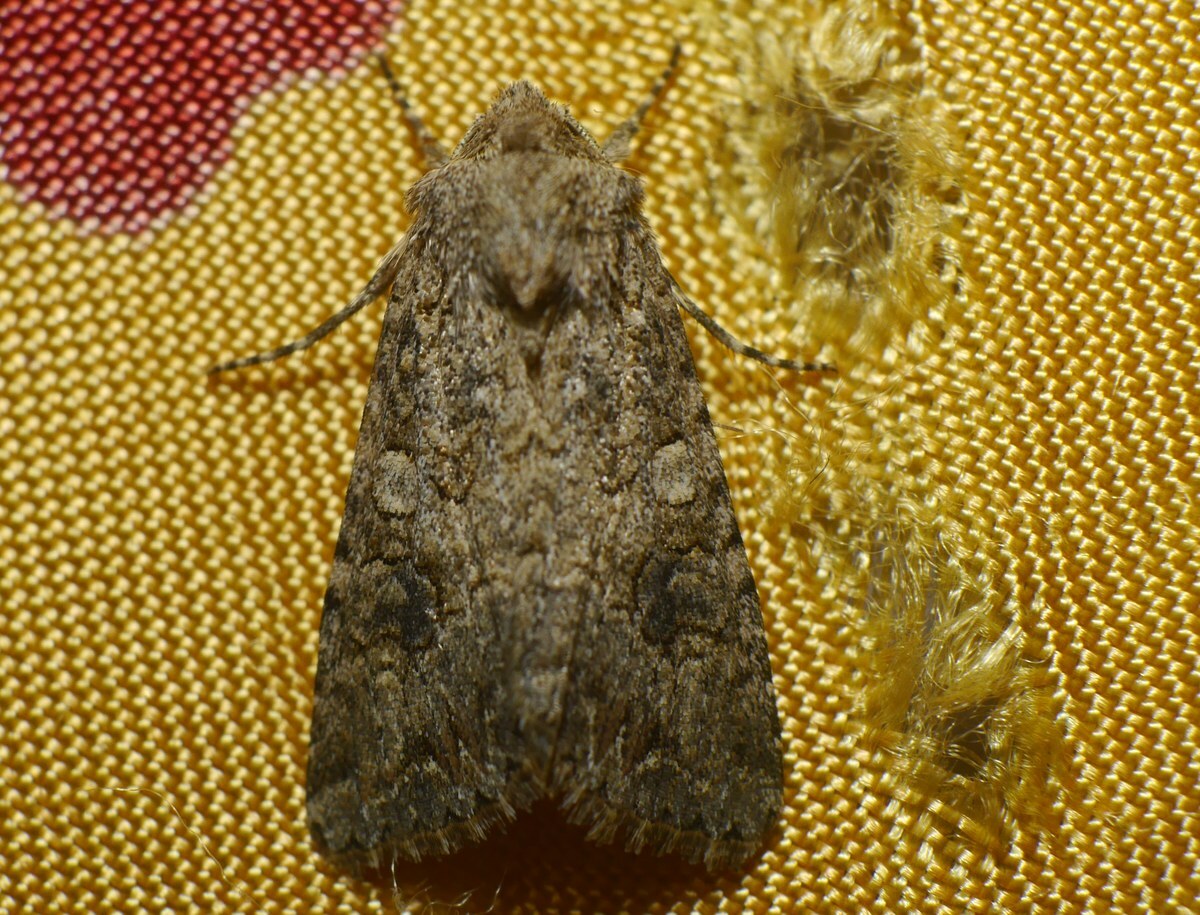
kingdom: Animalia
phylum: Arthropoda
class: Insecta
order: Lepidoptera
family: Noctuidae
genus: Anarta
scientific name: Anarta trifolii
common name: Clover cutworm moth
